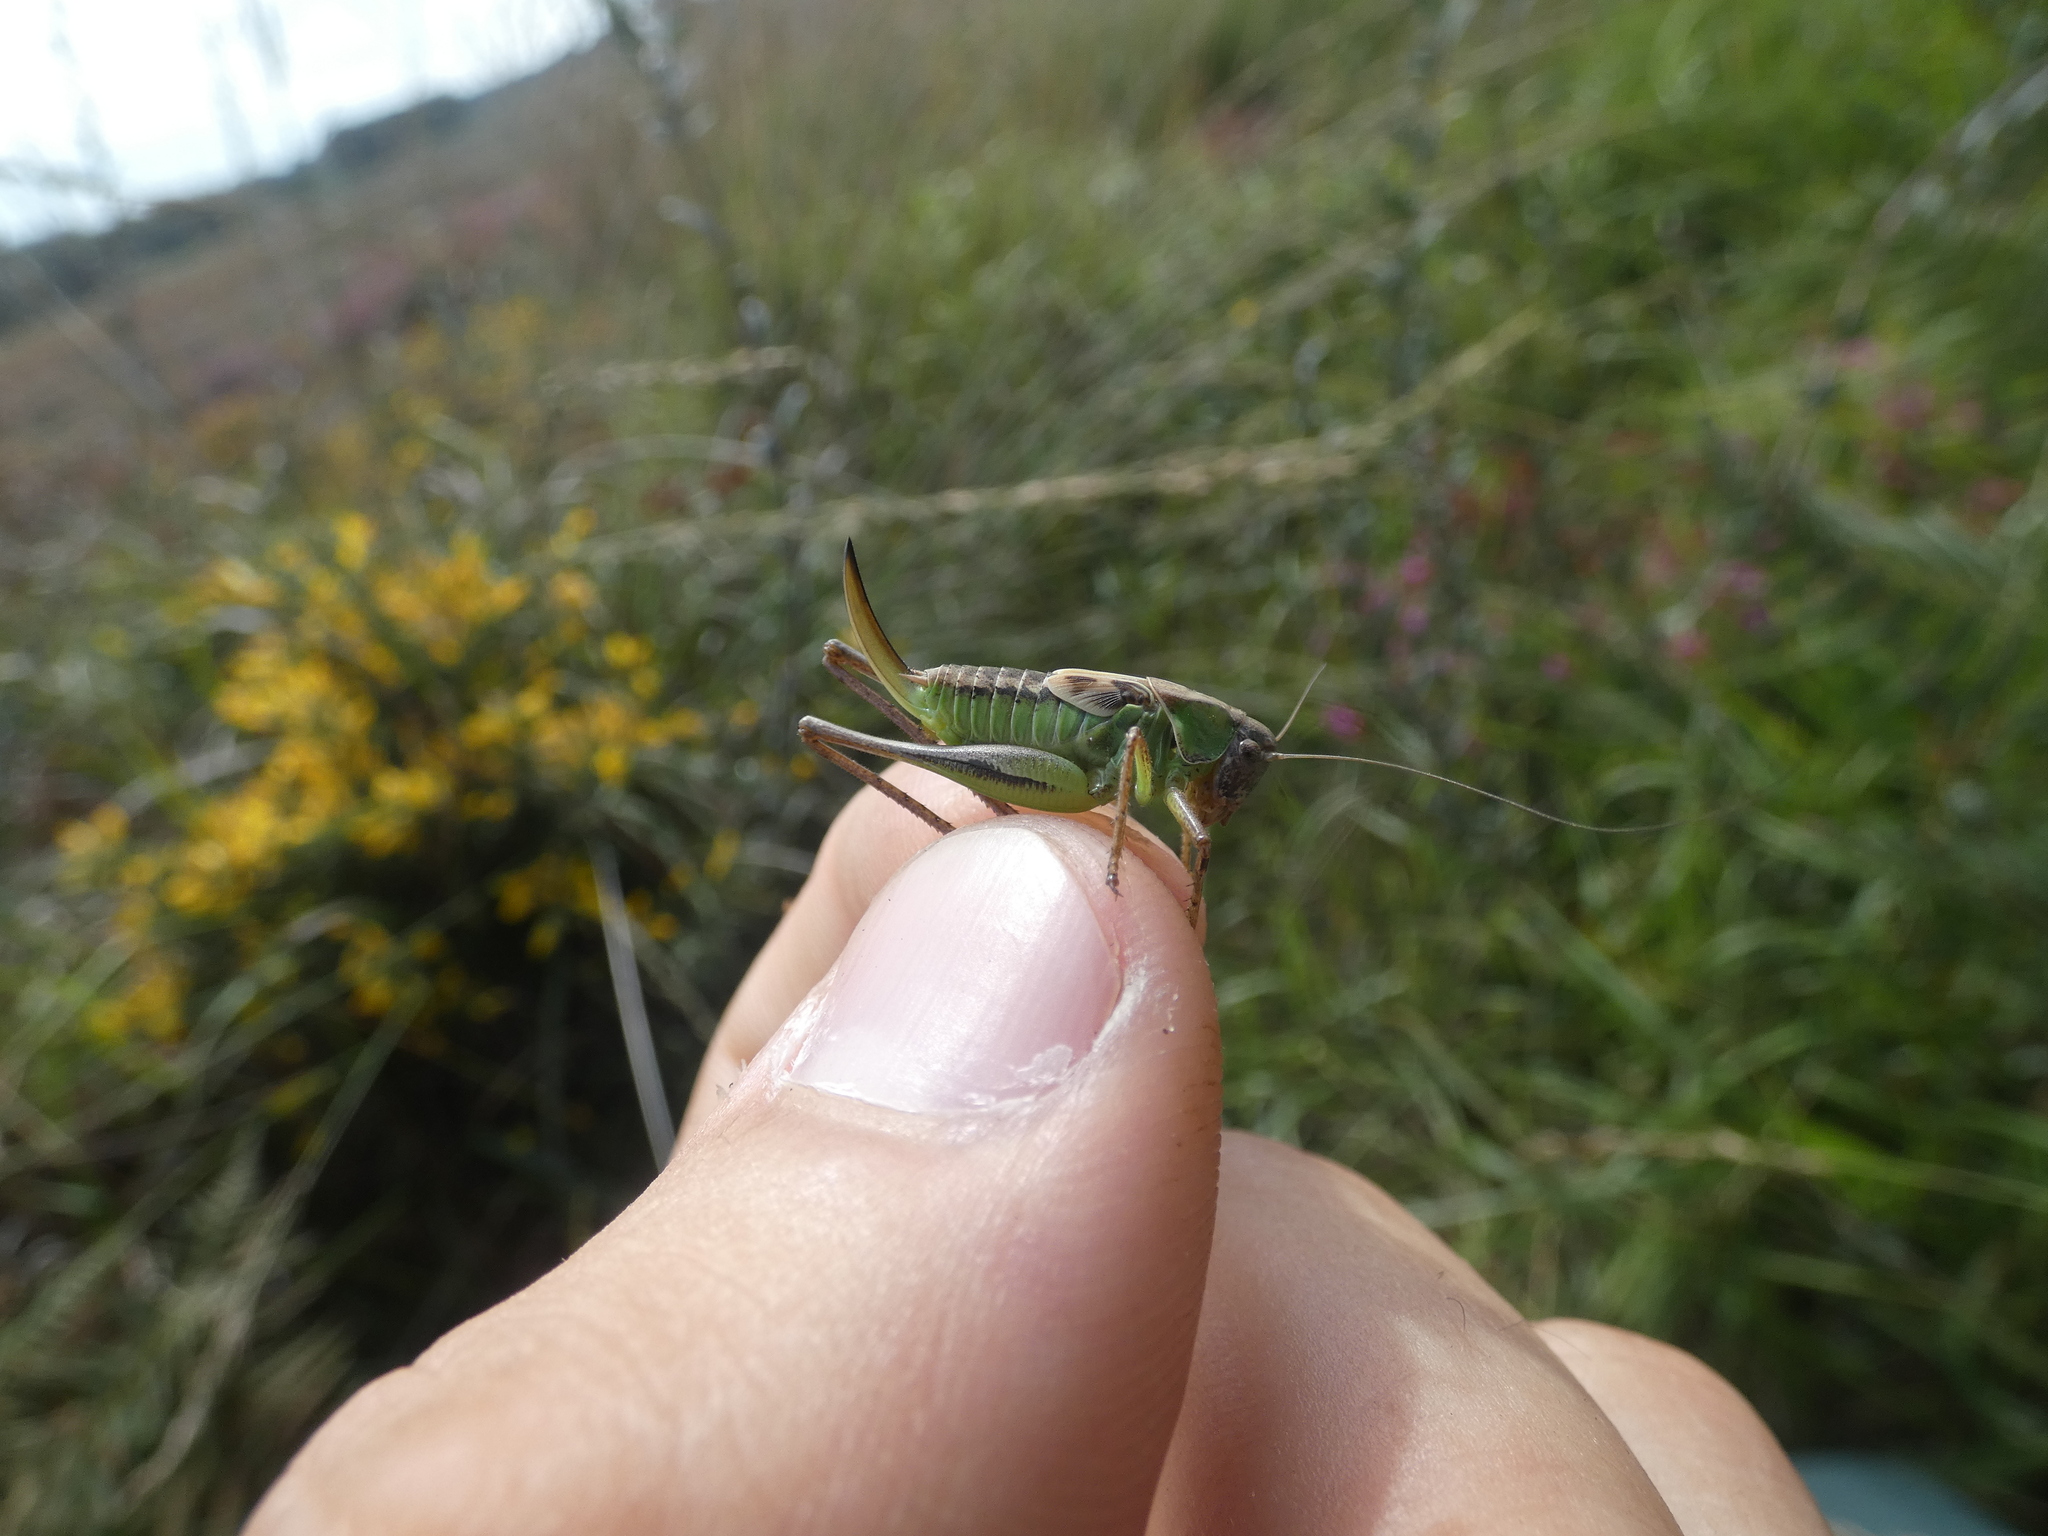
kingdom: Animalia
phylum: Arthropoda
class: Insecta
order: Orthoptera
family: Tettigoniidae
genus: Platycleis
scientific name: Platycleis albopunctata
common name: Grey bush-cricket
